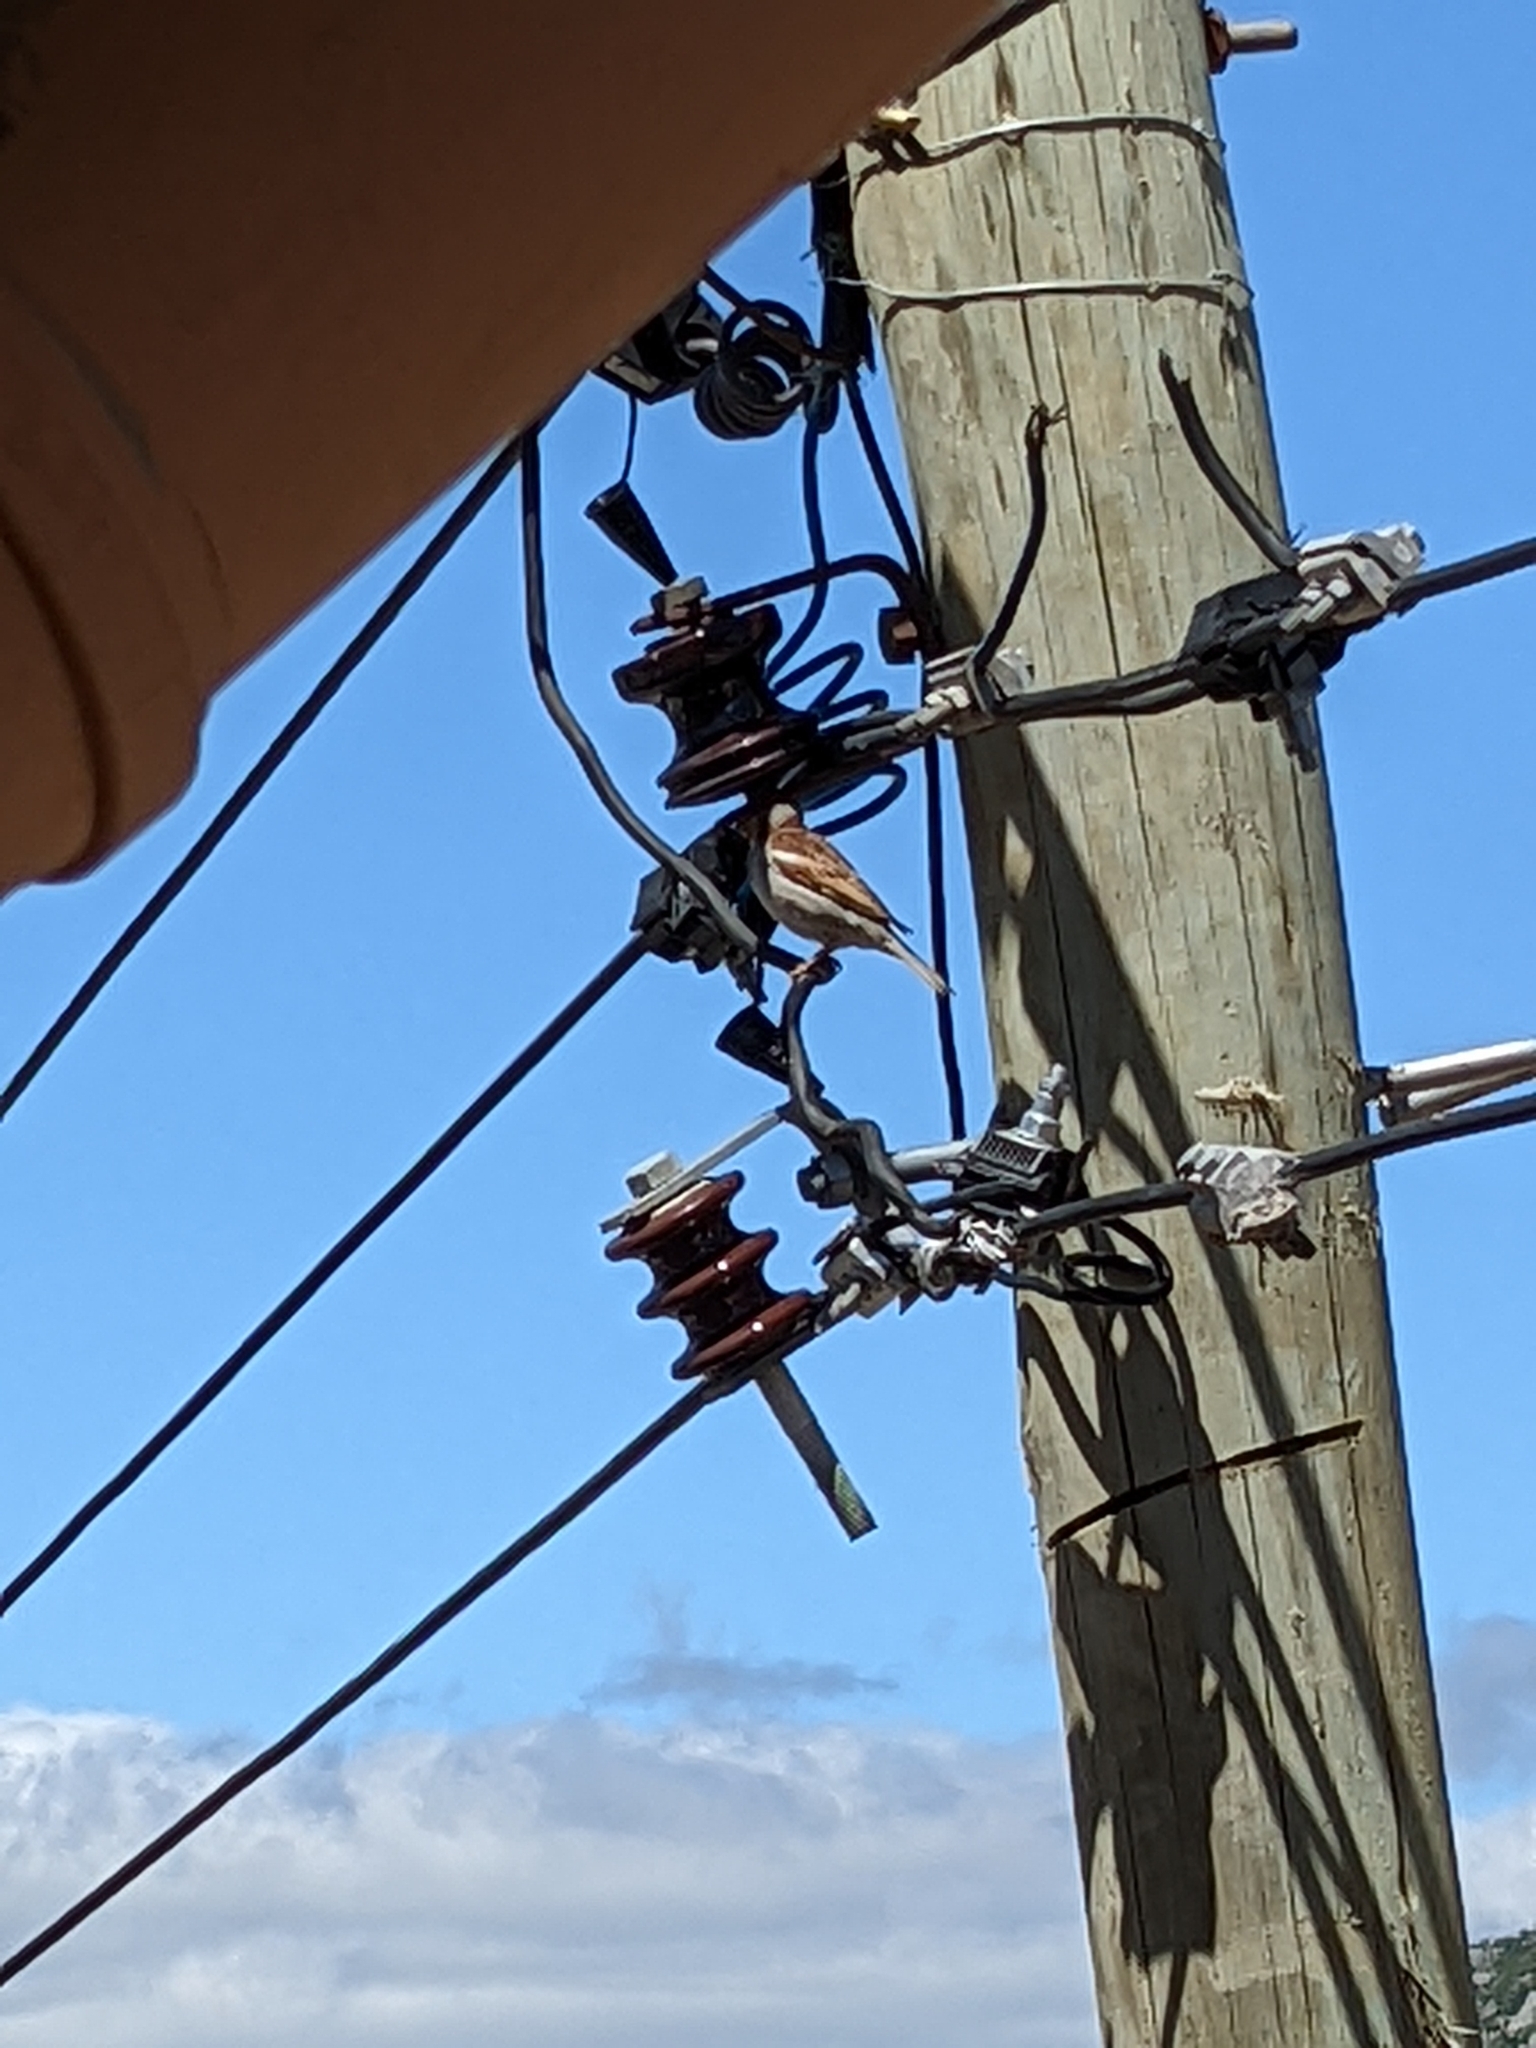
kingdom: Animalia
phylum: Chordata
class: Aves
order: Passeriformes
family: Passeridae
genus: Passer
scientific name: Passer domesticus
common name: House sparrow
